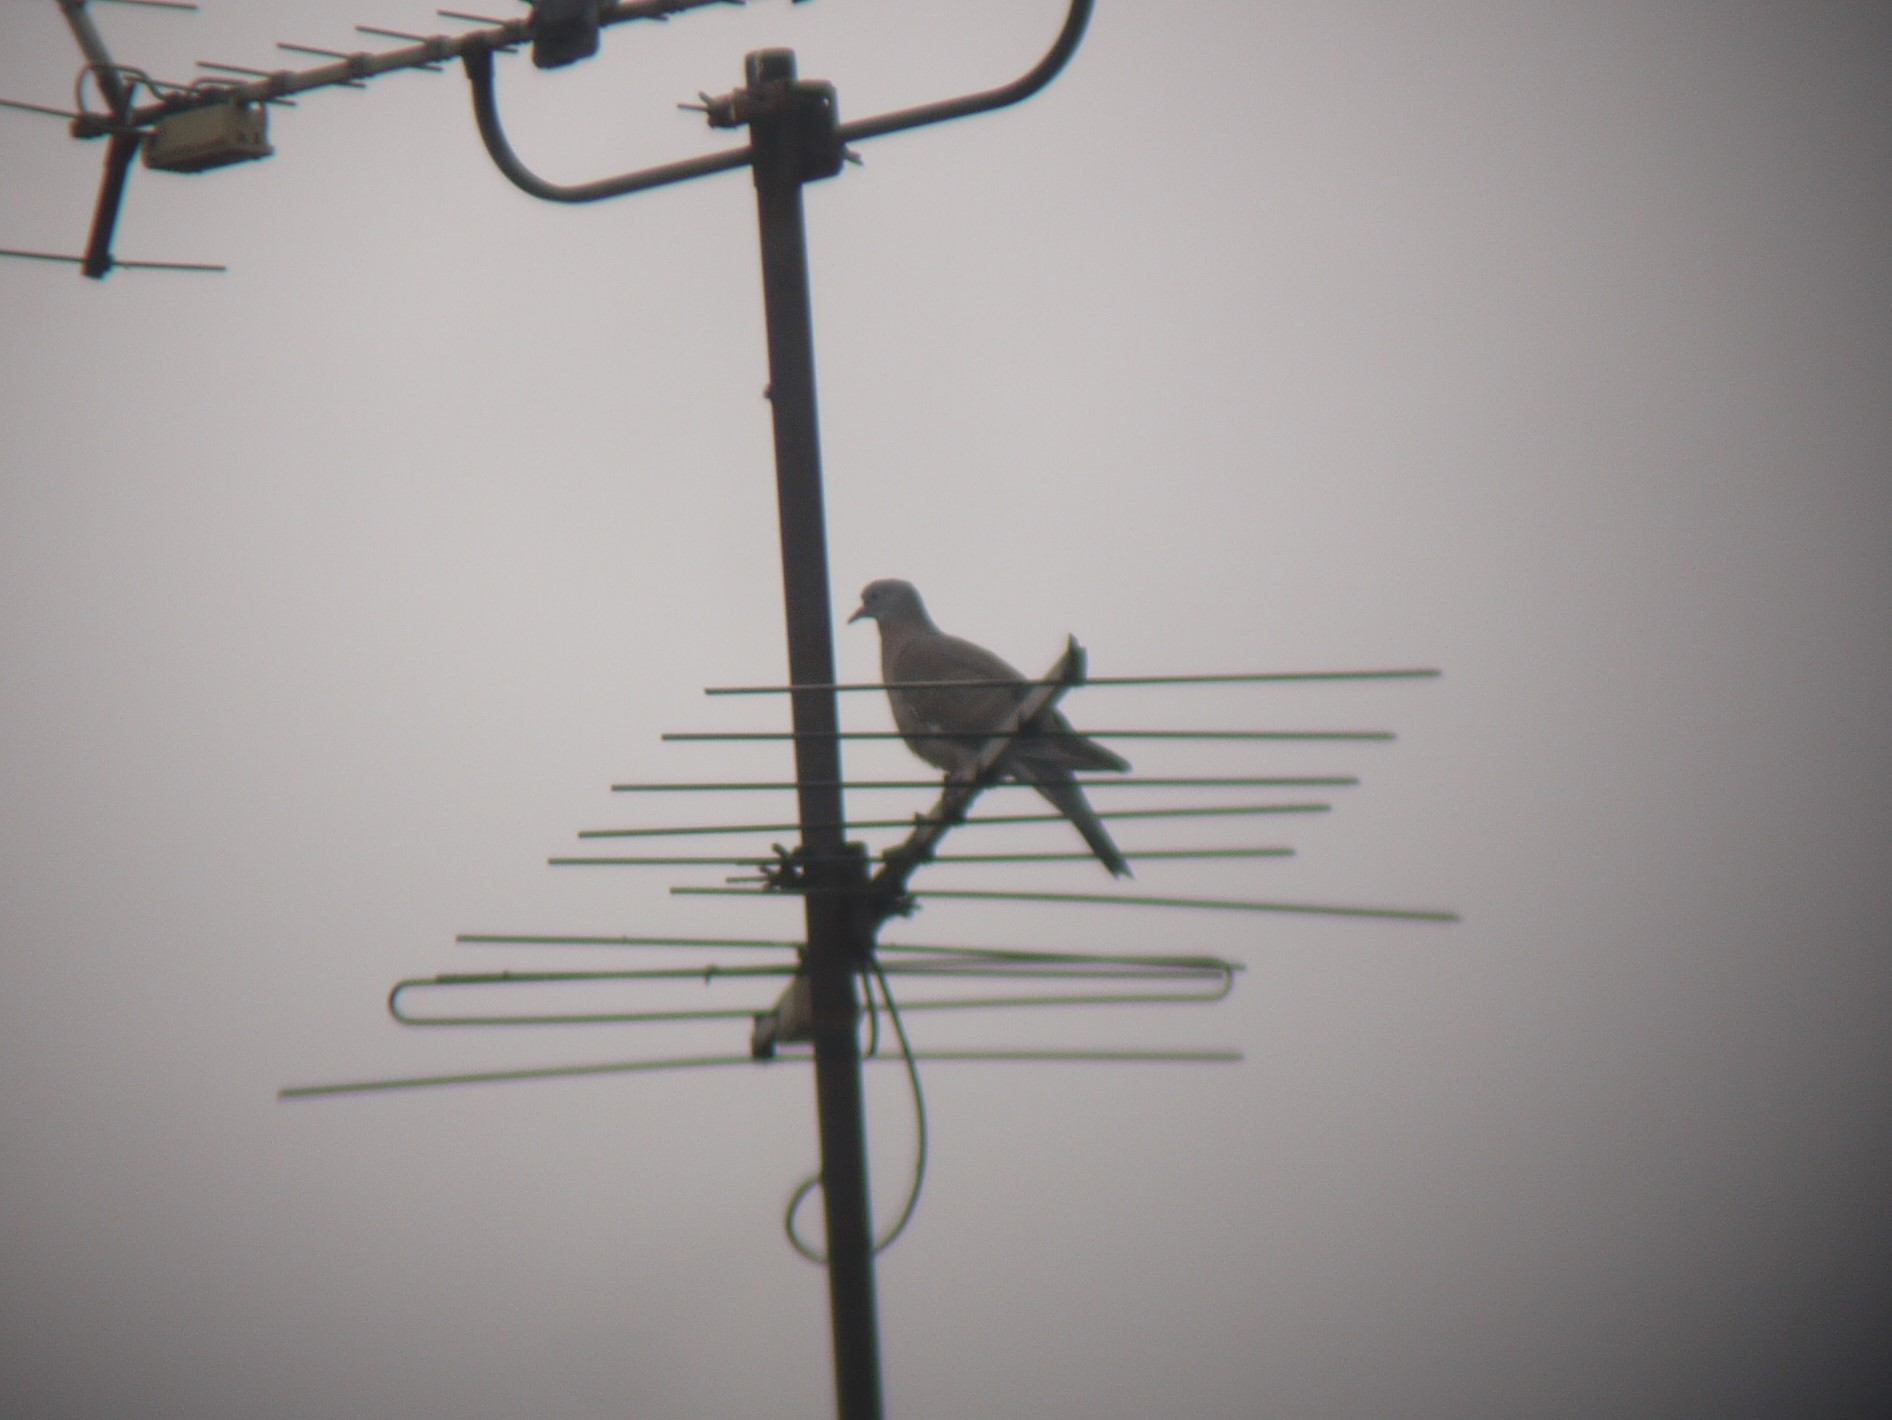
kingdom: Animalia
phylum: Chordata
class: Aves
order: Columbiformes
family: Columbidae
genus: Columba
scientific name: Columba palumbus
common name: Common wood pigeon
